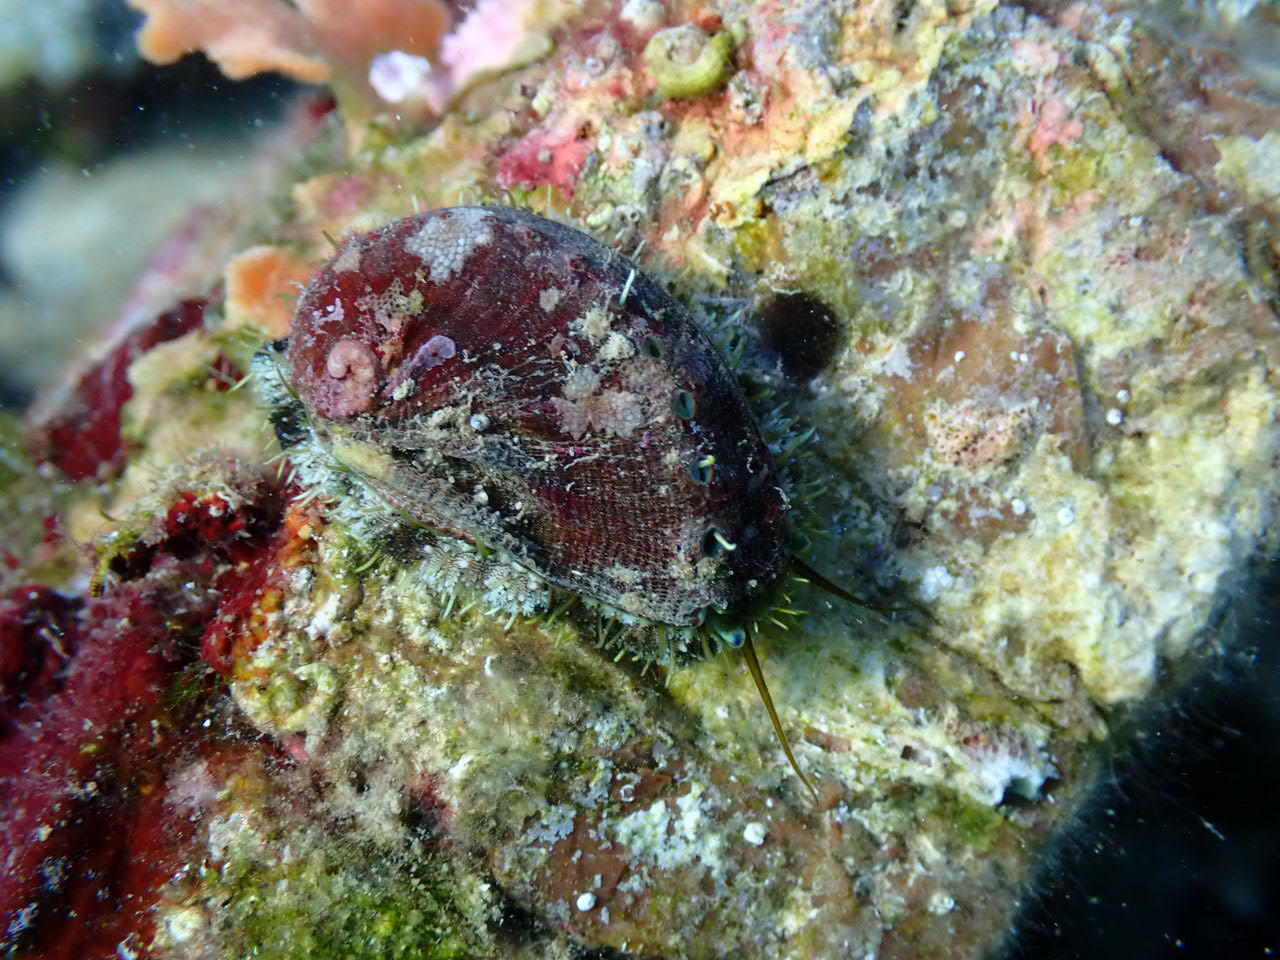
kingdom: Animalia
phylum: Mollusca
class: Gastropoda
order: Lepetellida
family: Haliotidae
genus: Haliotis
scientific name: Haliotis tuberculata
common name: Green ormer
